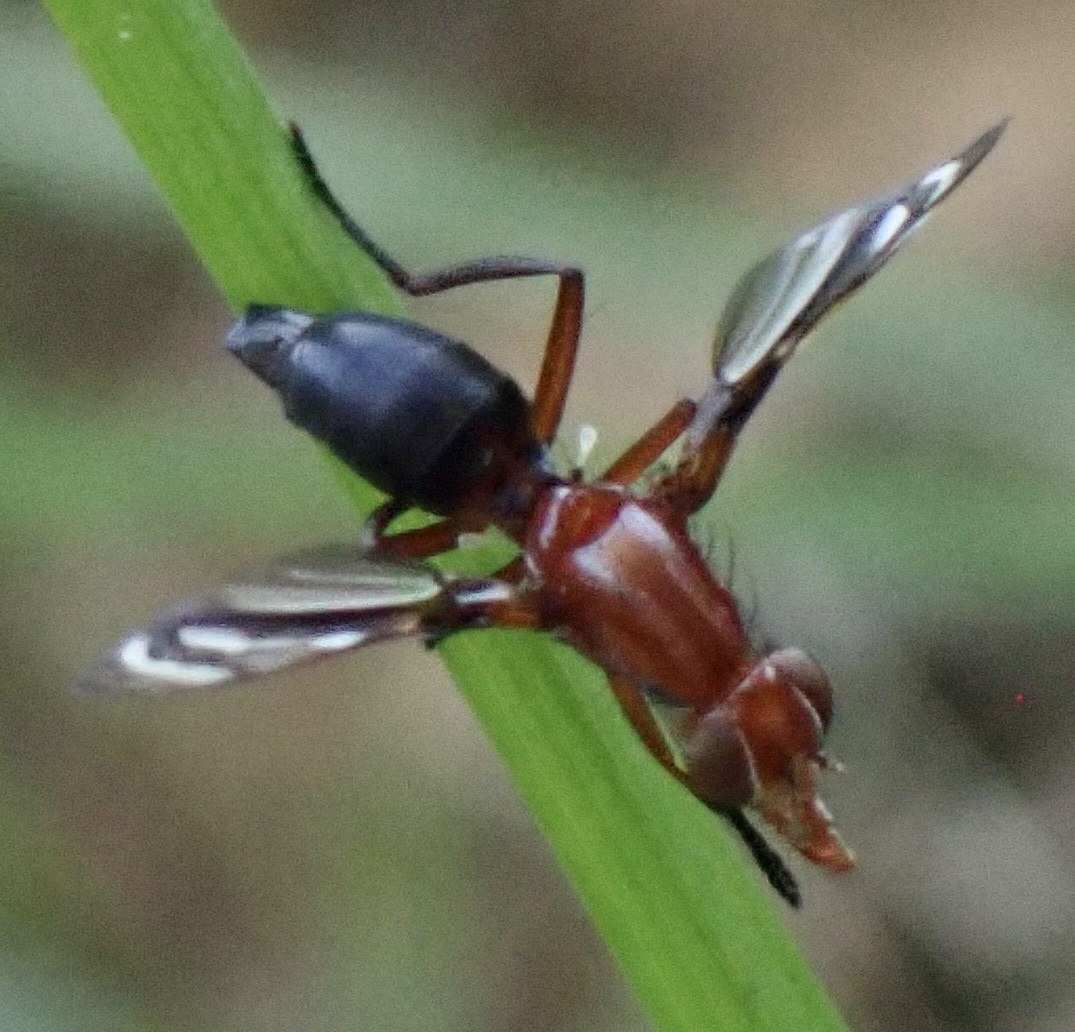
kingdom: Animalia
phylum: Arthropoda
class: Insecta
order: Diptera
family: Ulidiidae
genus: Tritoxa
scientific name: Tritoxa incurva
